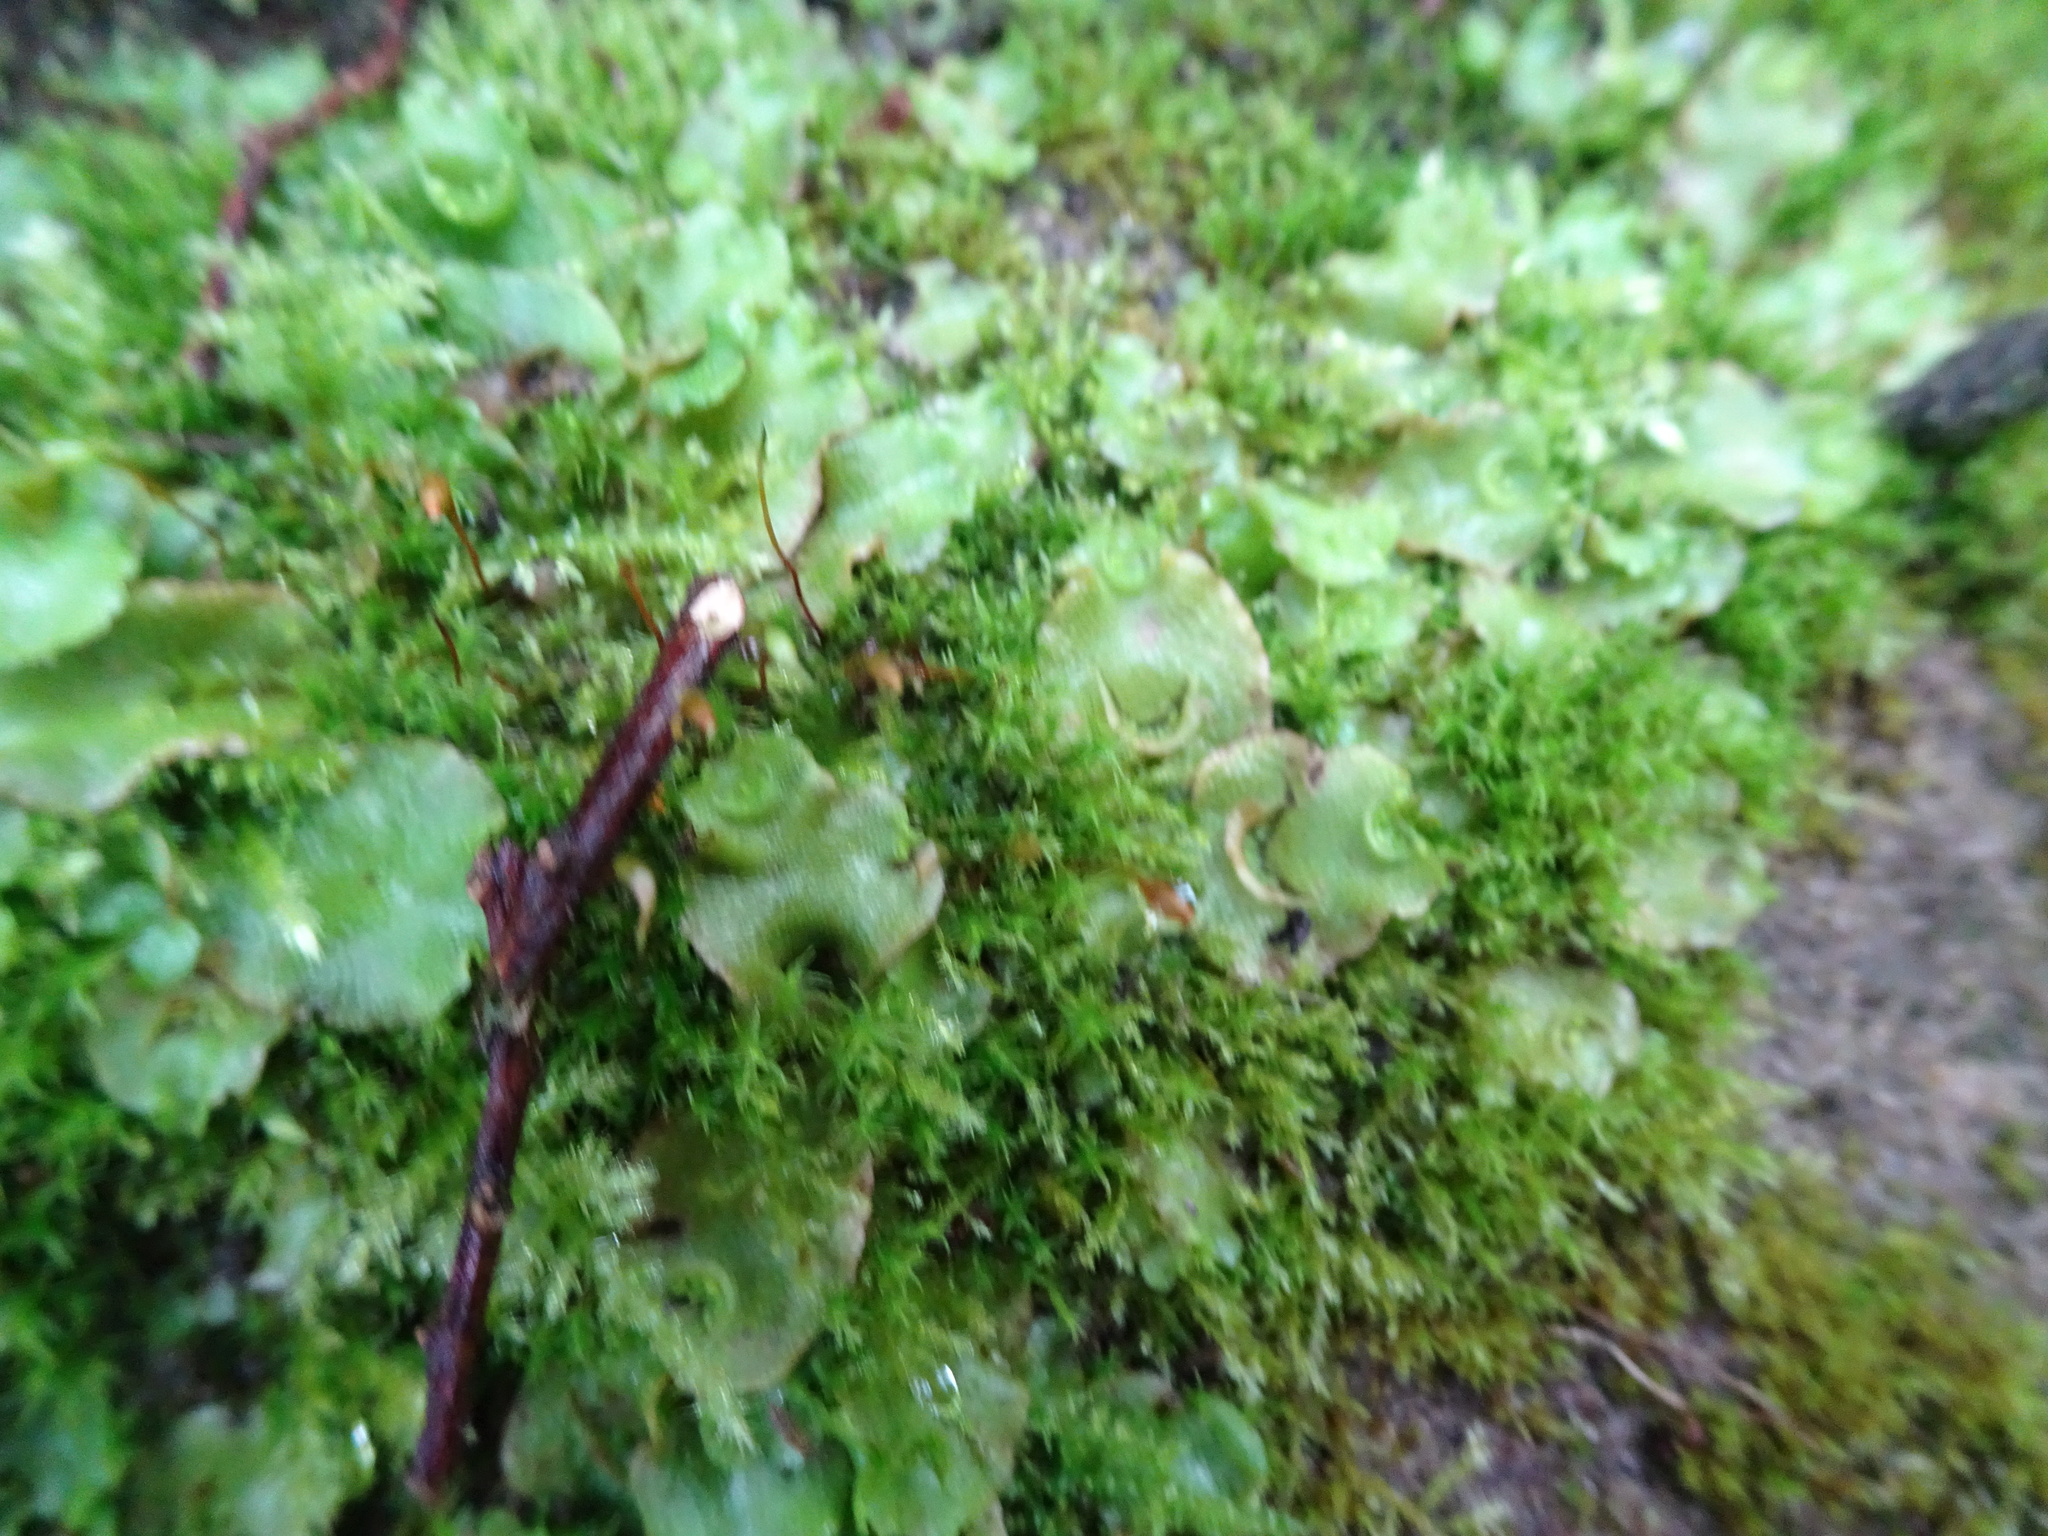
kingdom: Plantae
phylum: Marchantiophyta
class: Marchantiopsida
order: Lunulariales
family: Lunulariaceae
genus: Lunularia
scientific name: Lunularia cruciata
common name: Crescent-cup liverwort
